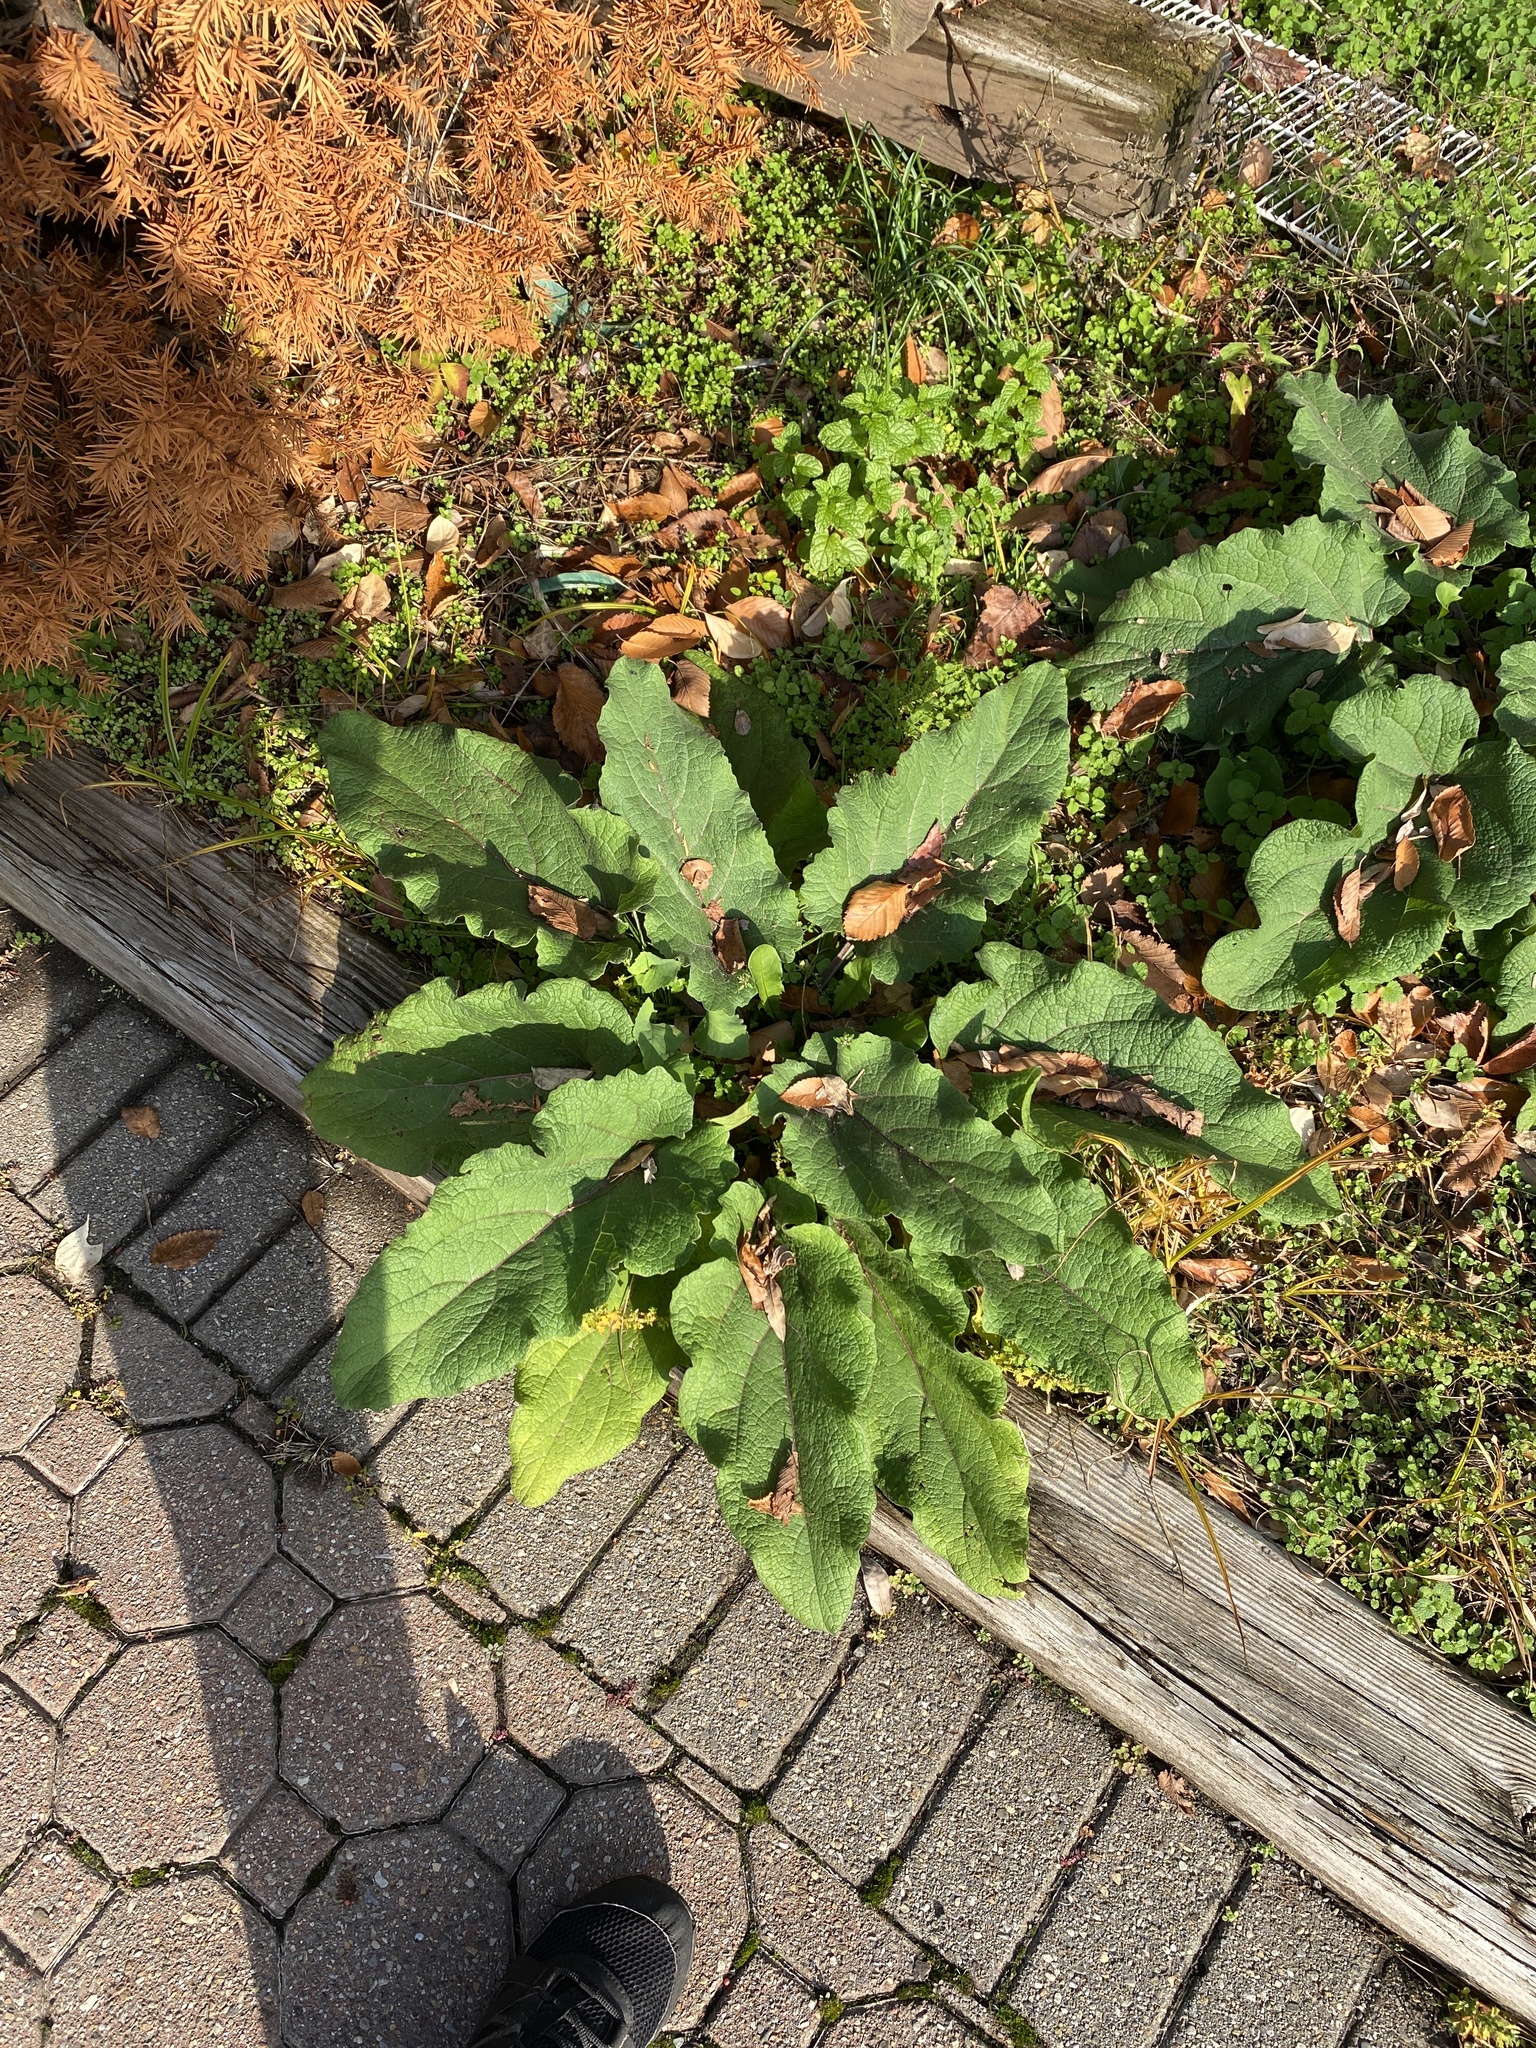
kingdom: Plantae
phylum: Tracheophyta
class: Magnoliopsida
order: Asterales
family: Asteraceae
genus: Arctium
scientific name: Arctium
